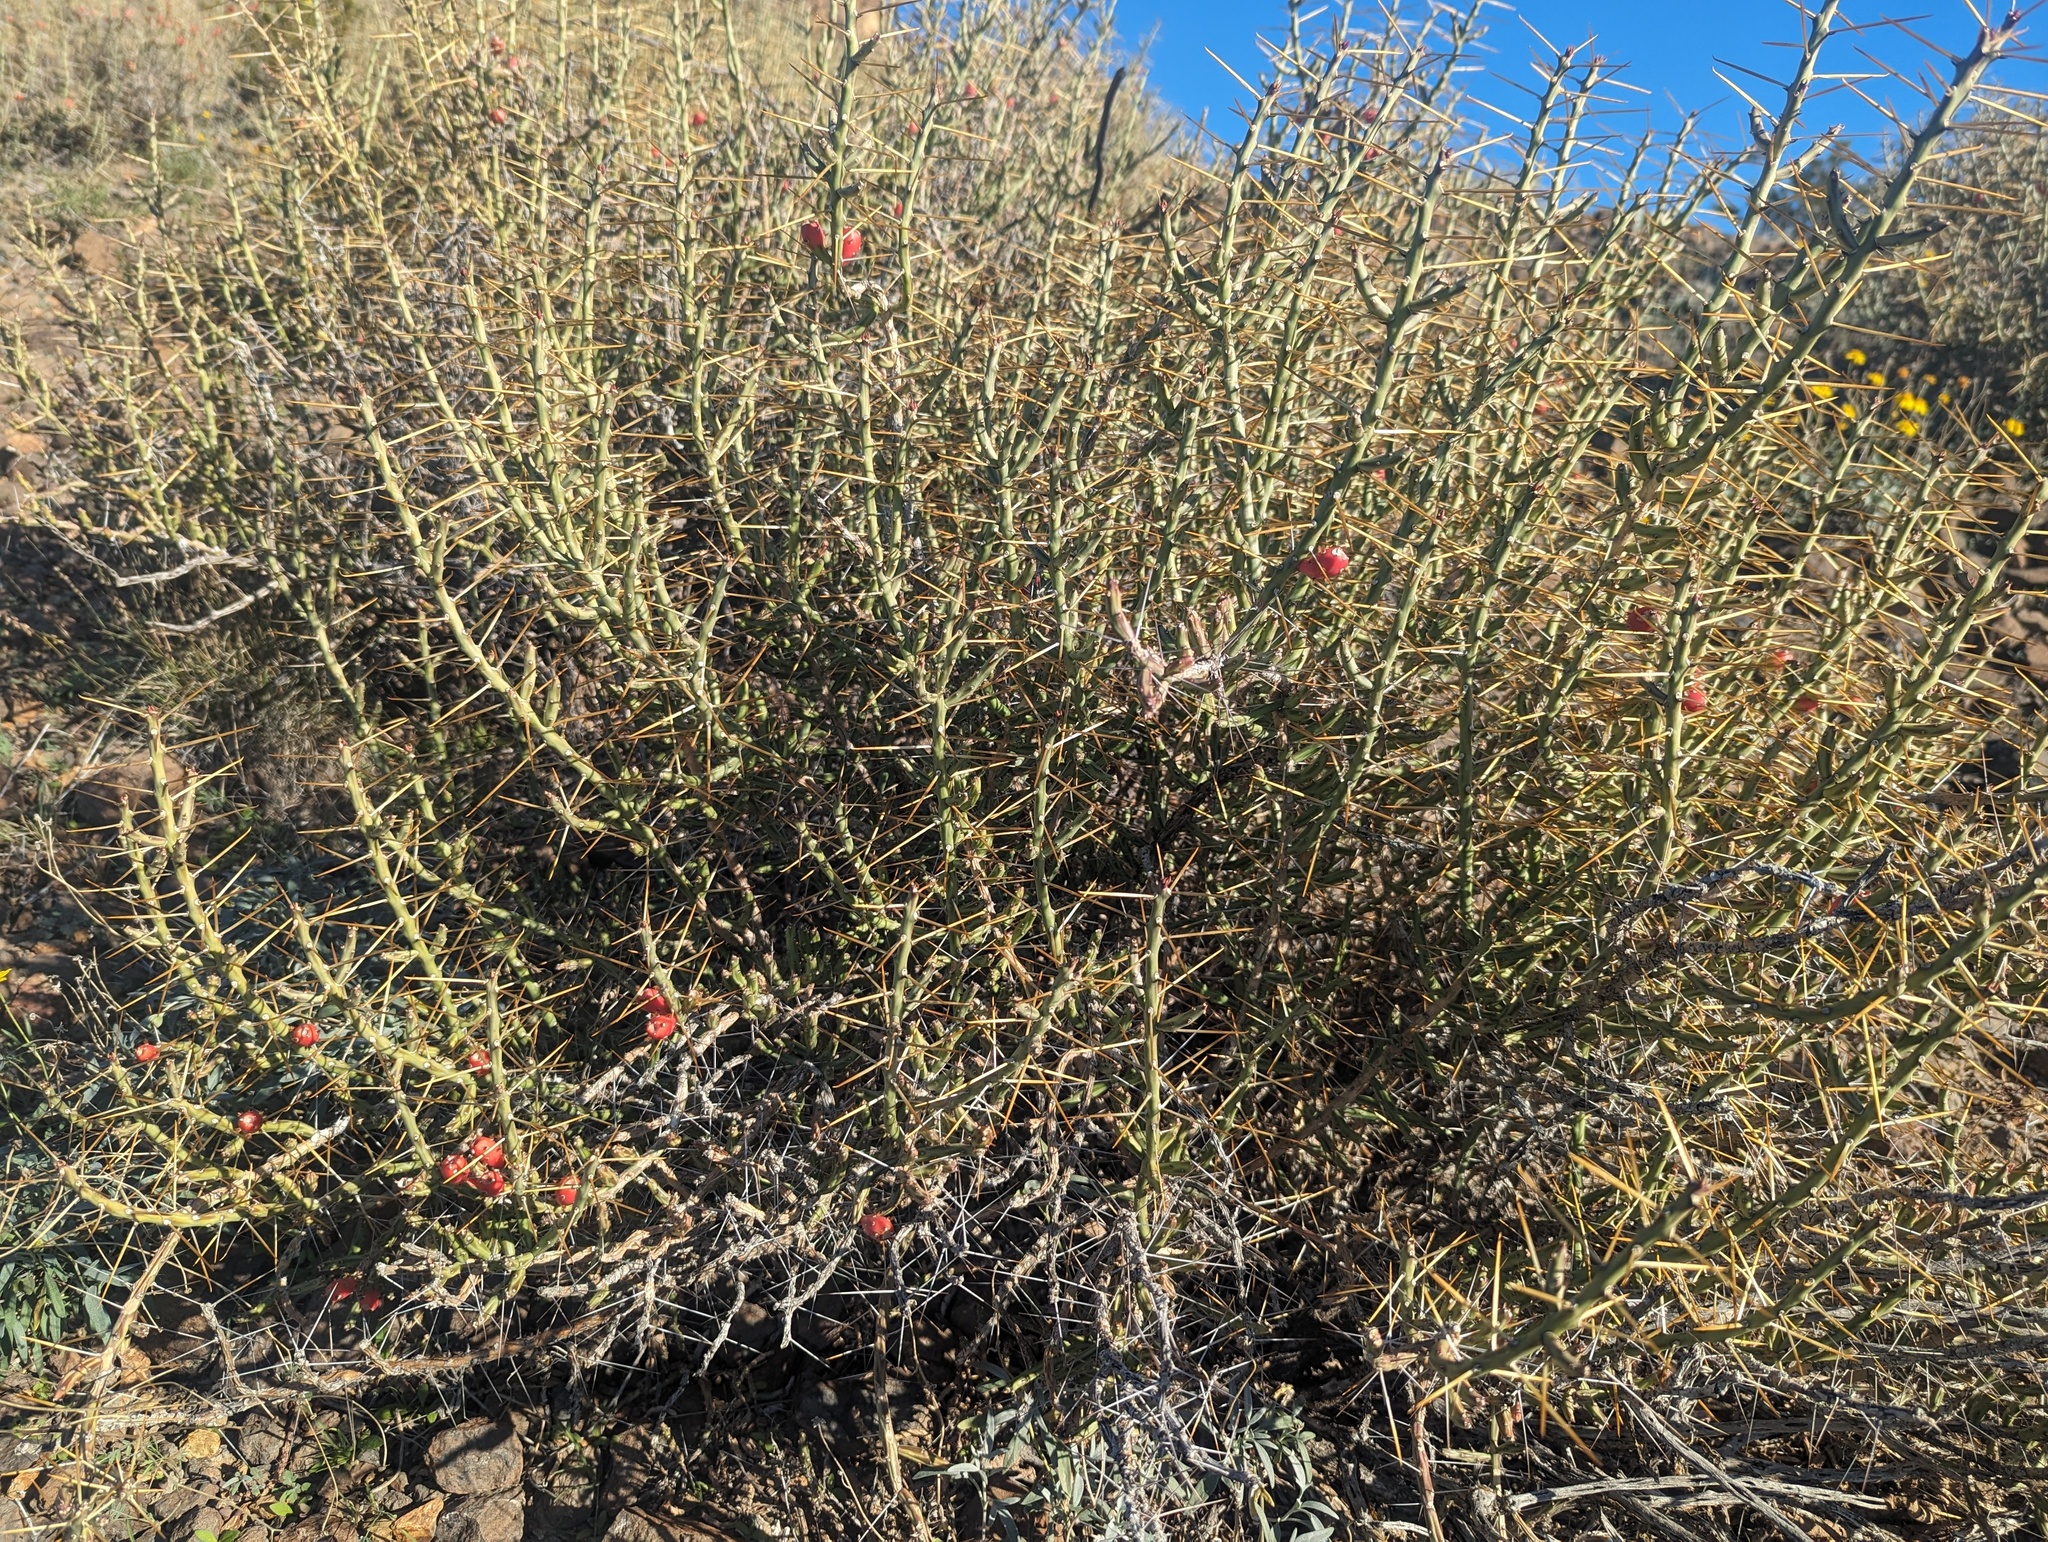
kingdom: Plantae
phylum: Tracheophyta
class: Magnoliopsida
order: Caryophyllales
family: Cactaceae
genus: Cylindropuntia
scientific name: Cylindropuntia leptocaulis
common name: Christmas cactus
